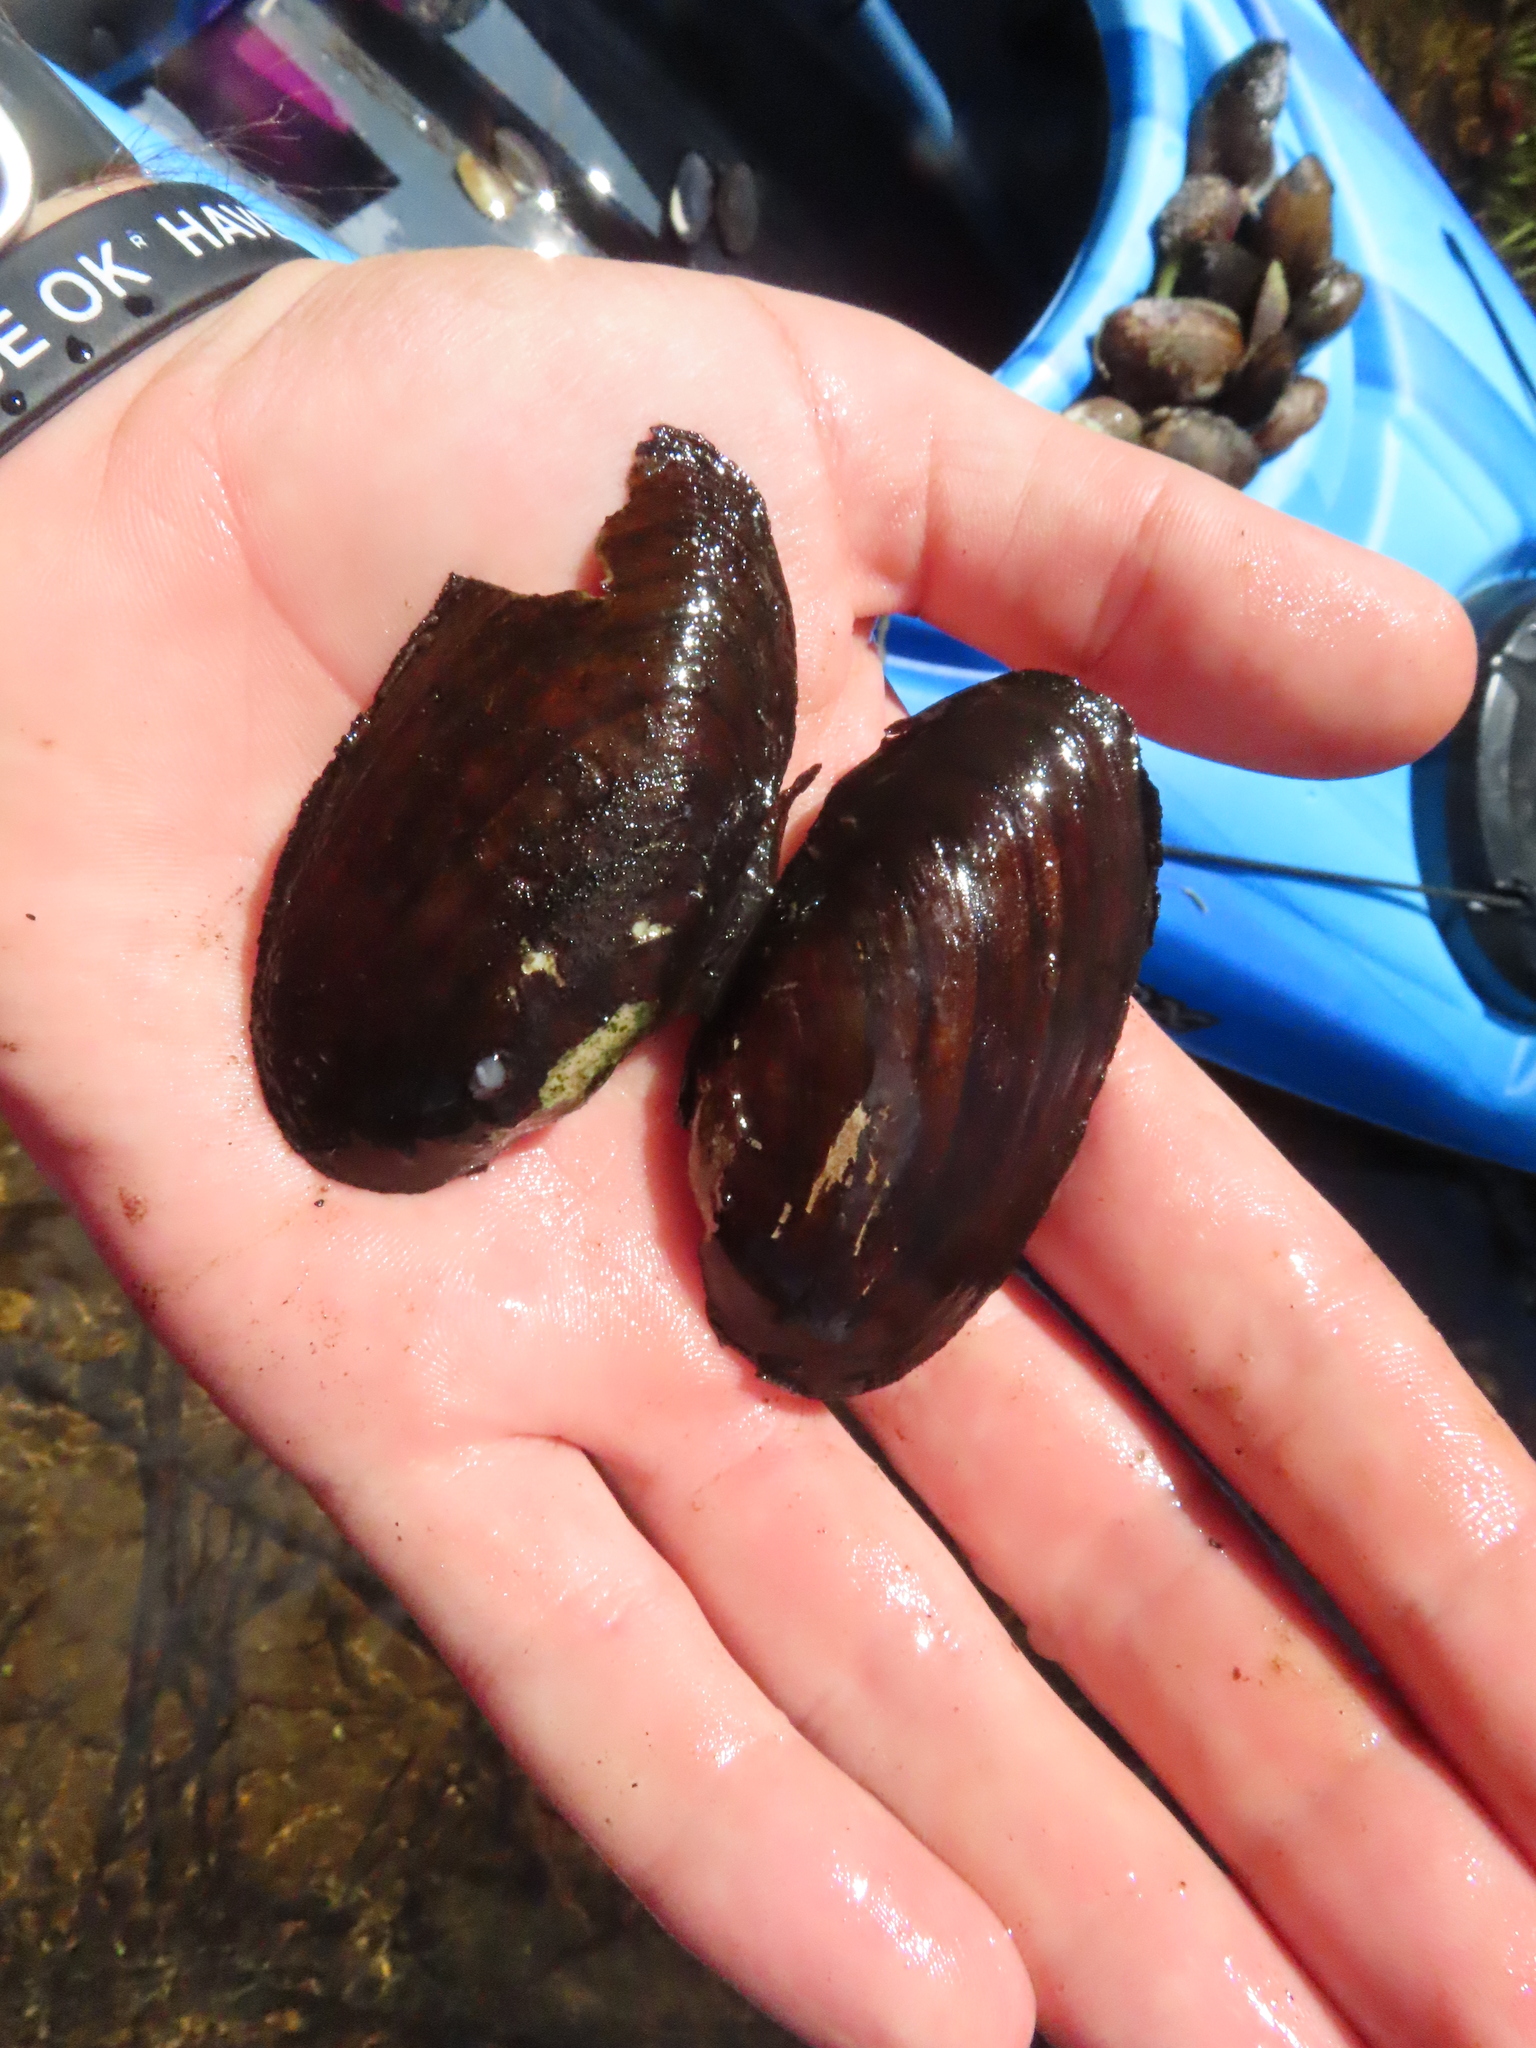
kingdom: Animalia
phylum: Mollusca
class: Bivalvia
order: Unionida
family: Unionidae
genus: Eurynia
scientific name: Eurynia dilatata
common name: Spike
